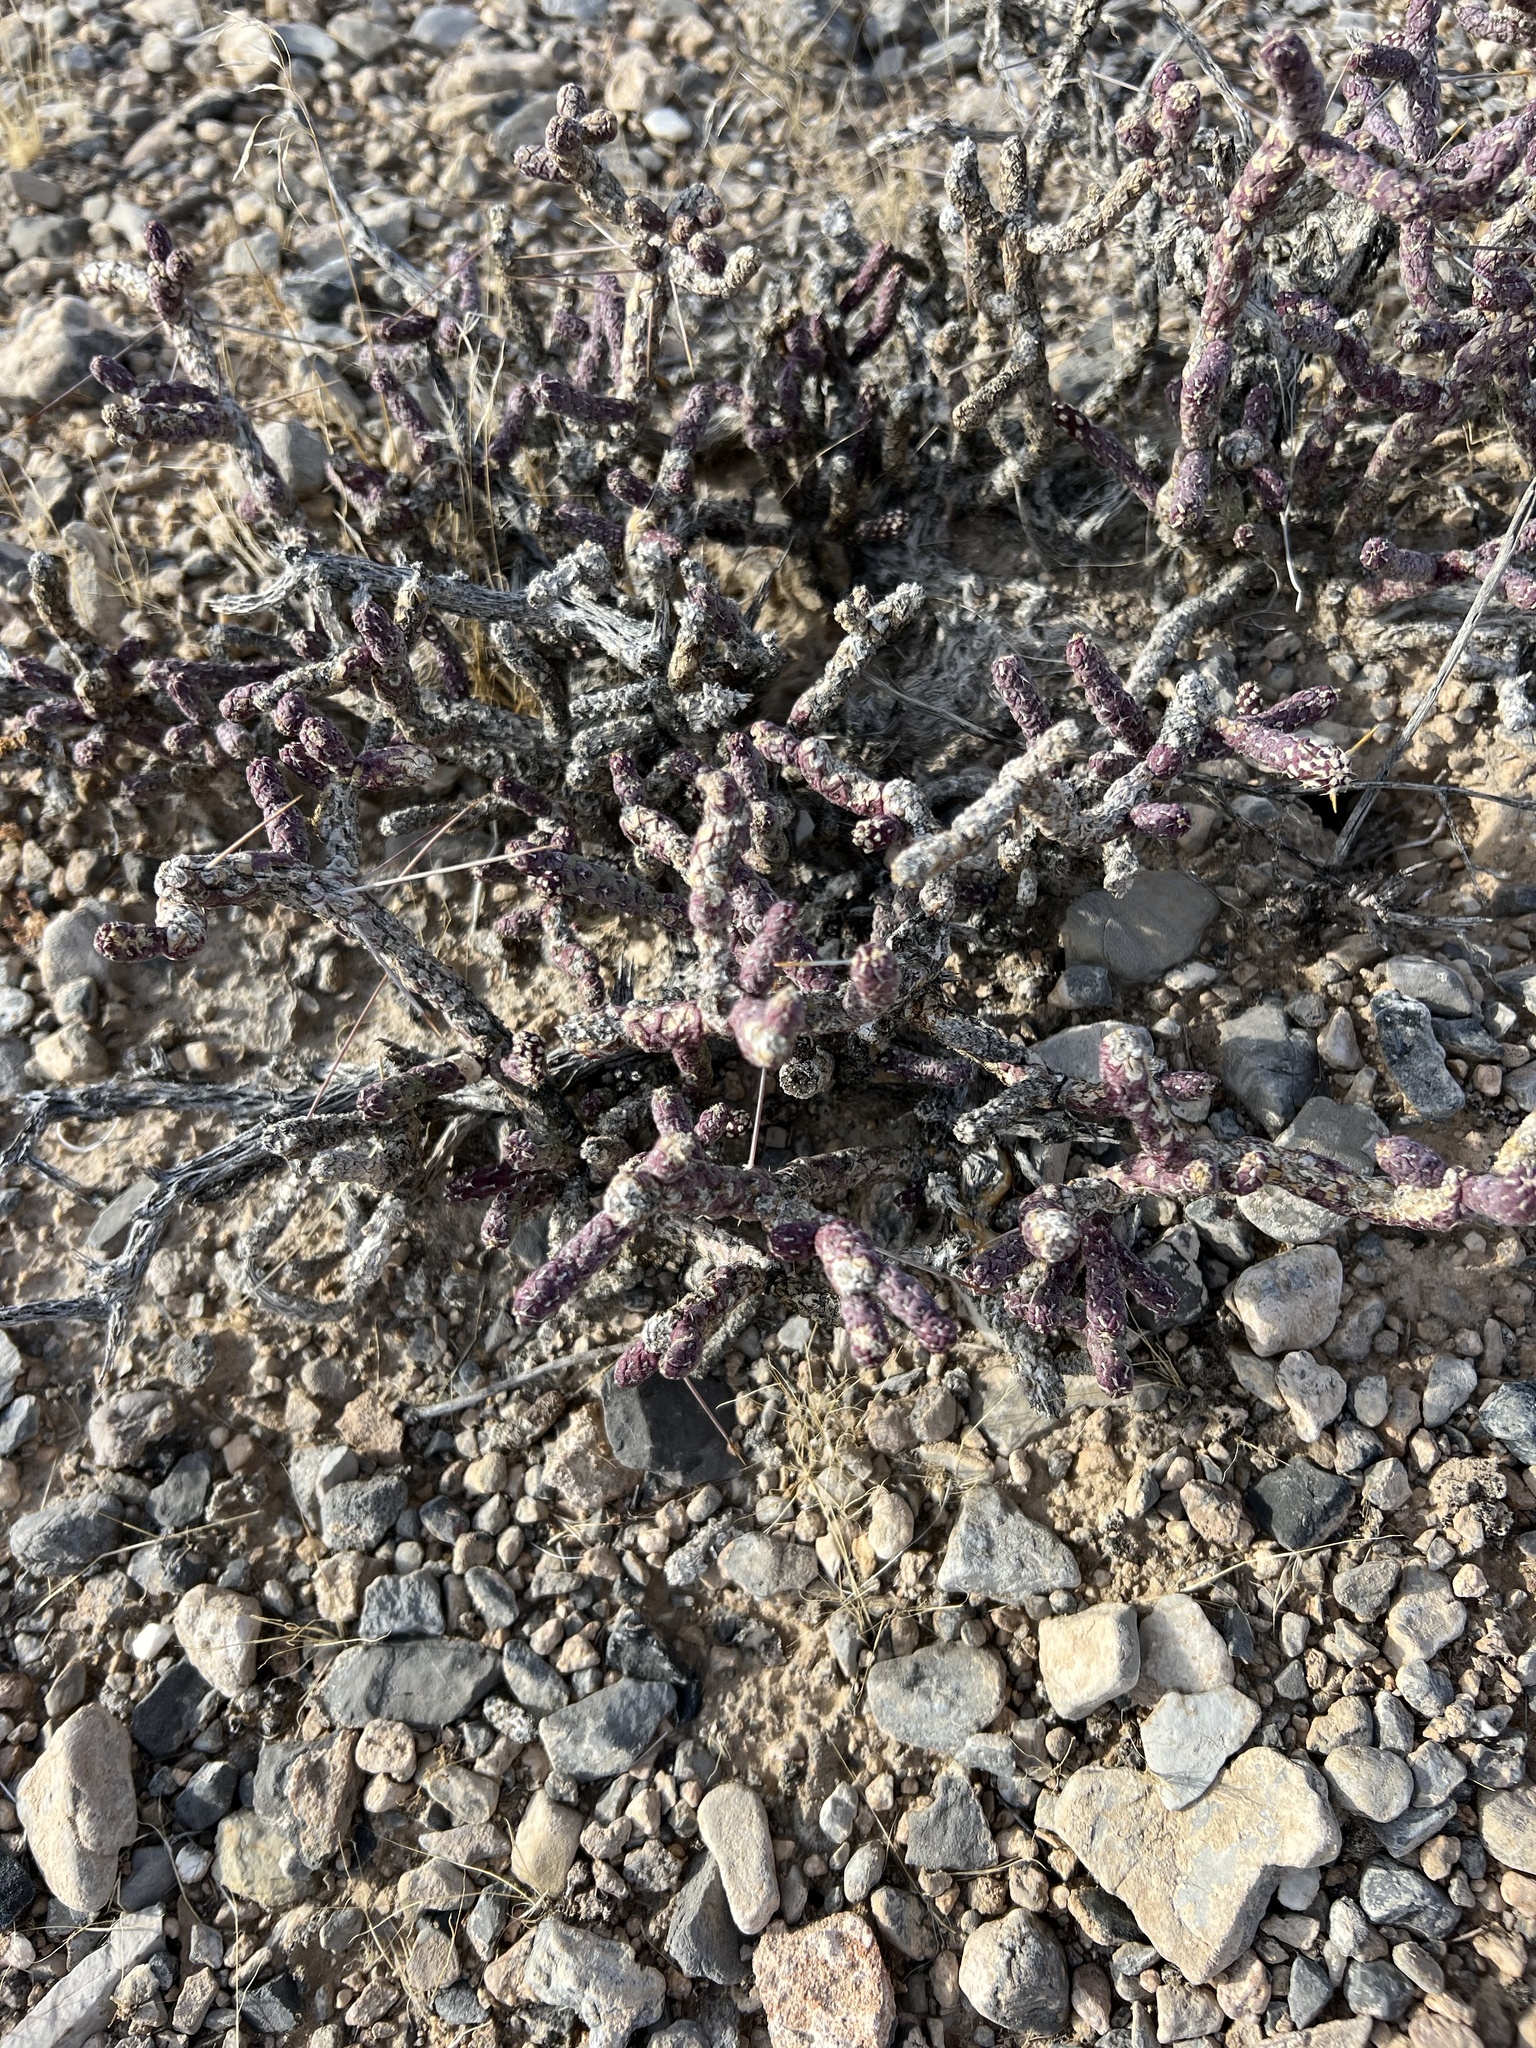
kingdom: Plantae
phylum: Tracheophyta
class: Magnoliopsida
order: Caryophyllales
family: Cactaceae
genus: Cylindropuntia
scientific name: Cylindropuntia ramosissima
